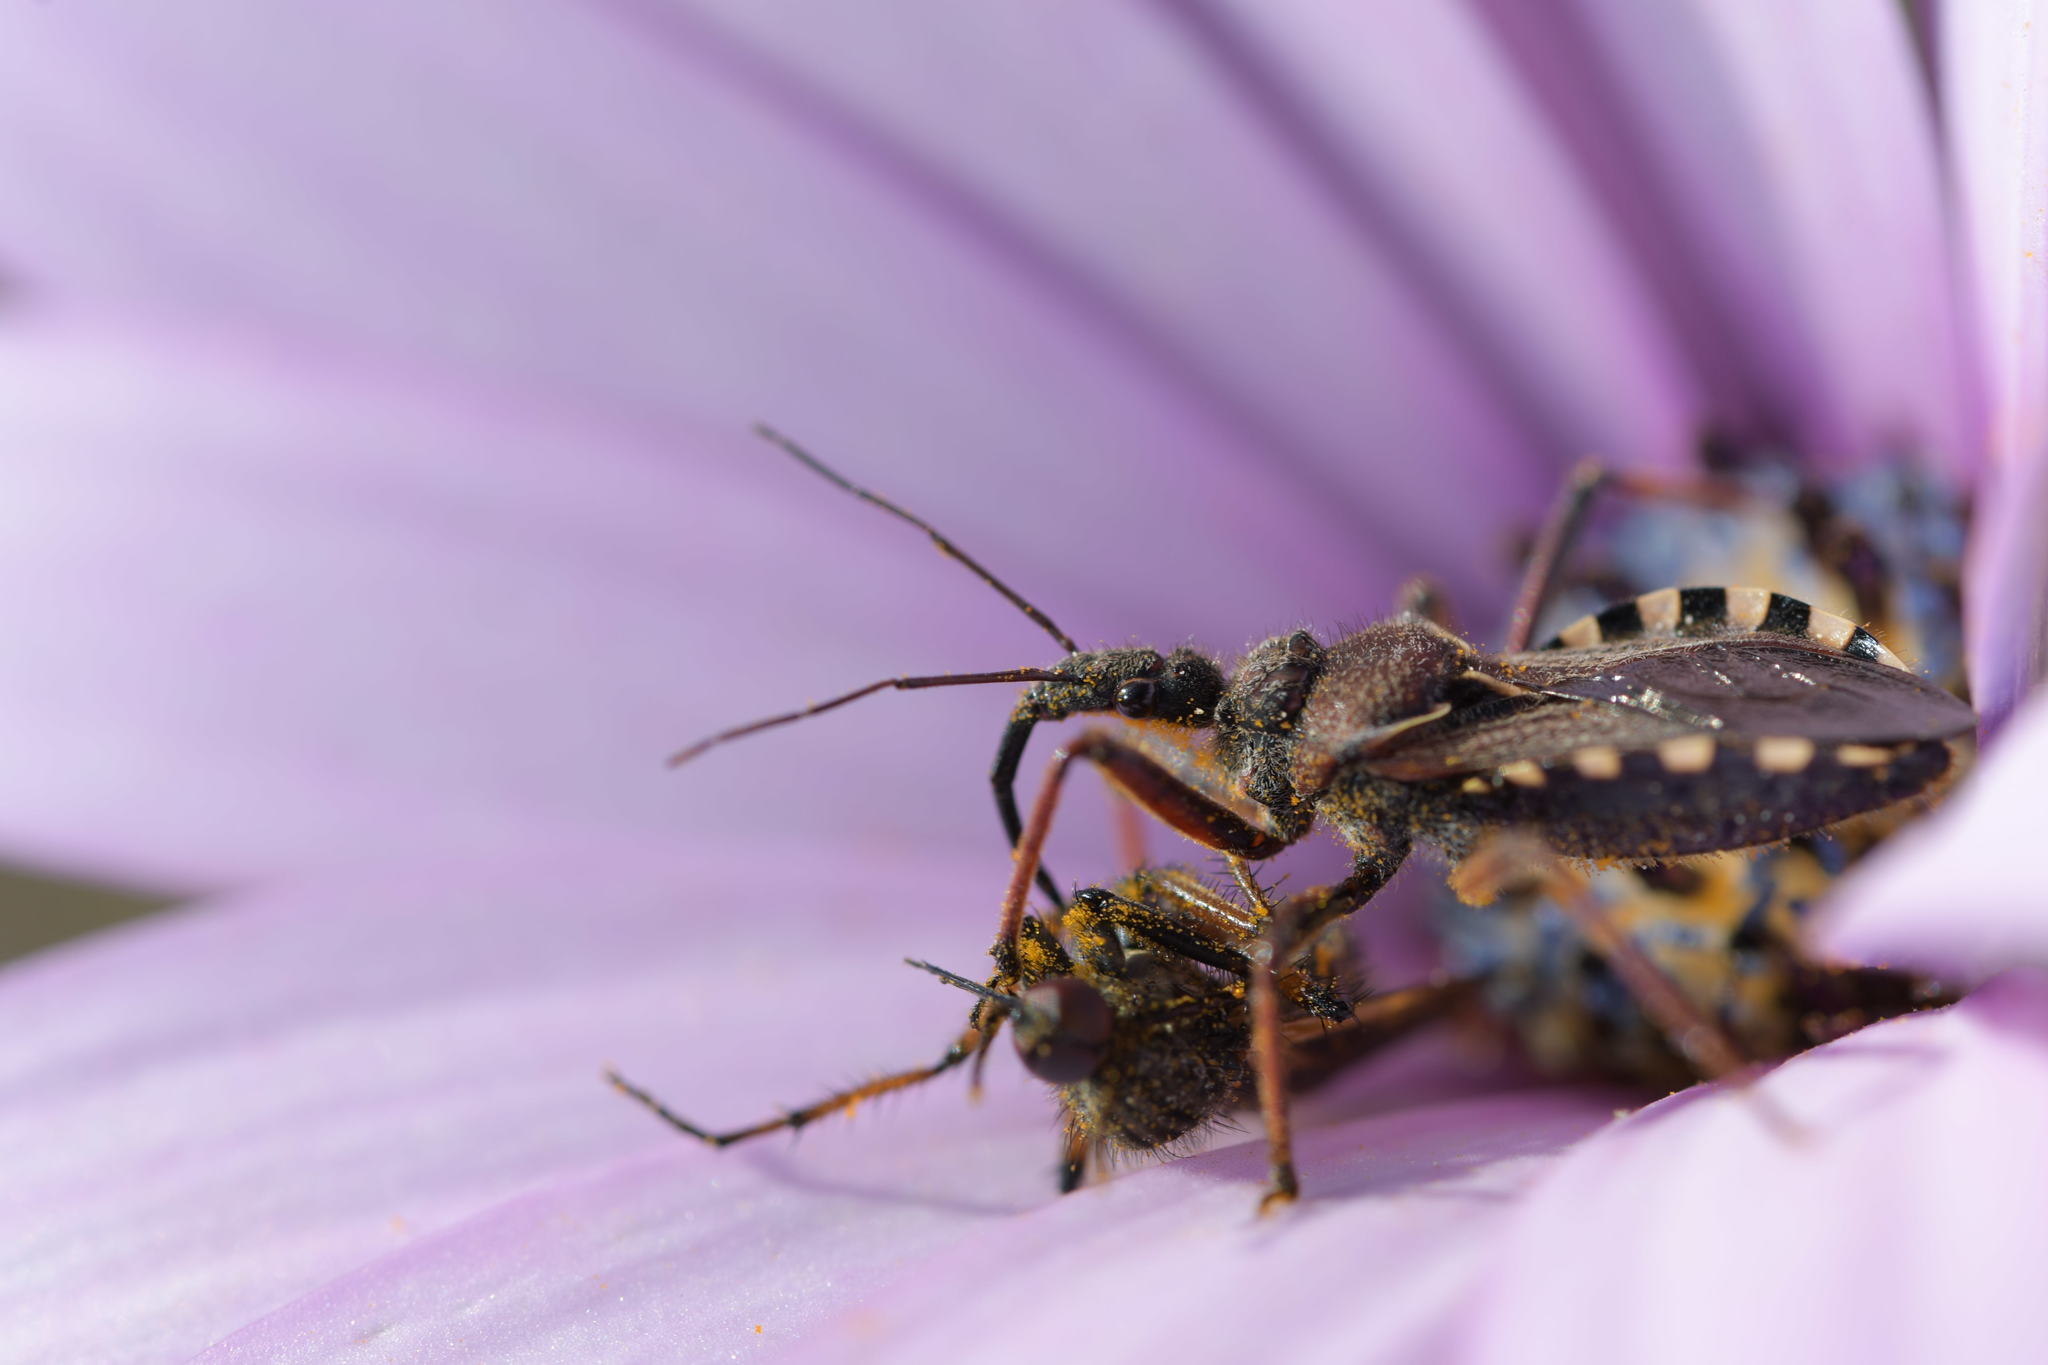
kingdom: Animalia
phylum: Arthropoda
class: Insecta
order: Hemiptera
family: Reduviidae
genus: Rhynocoris
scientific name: Rhynocoris erythropus
